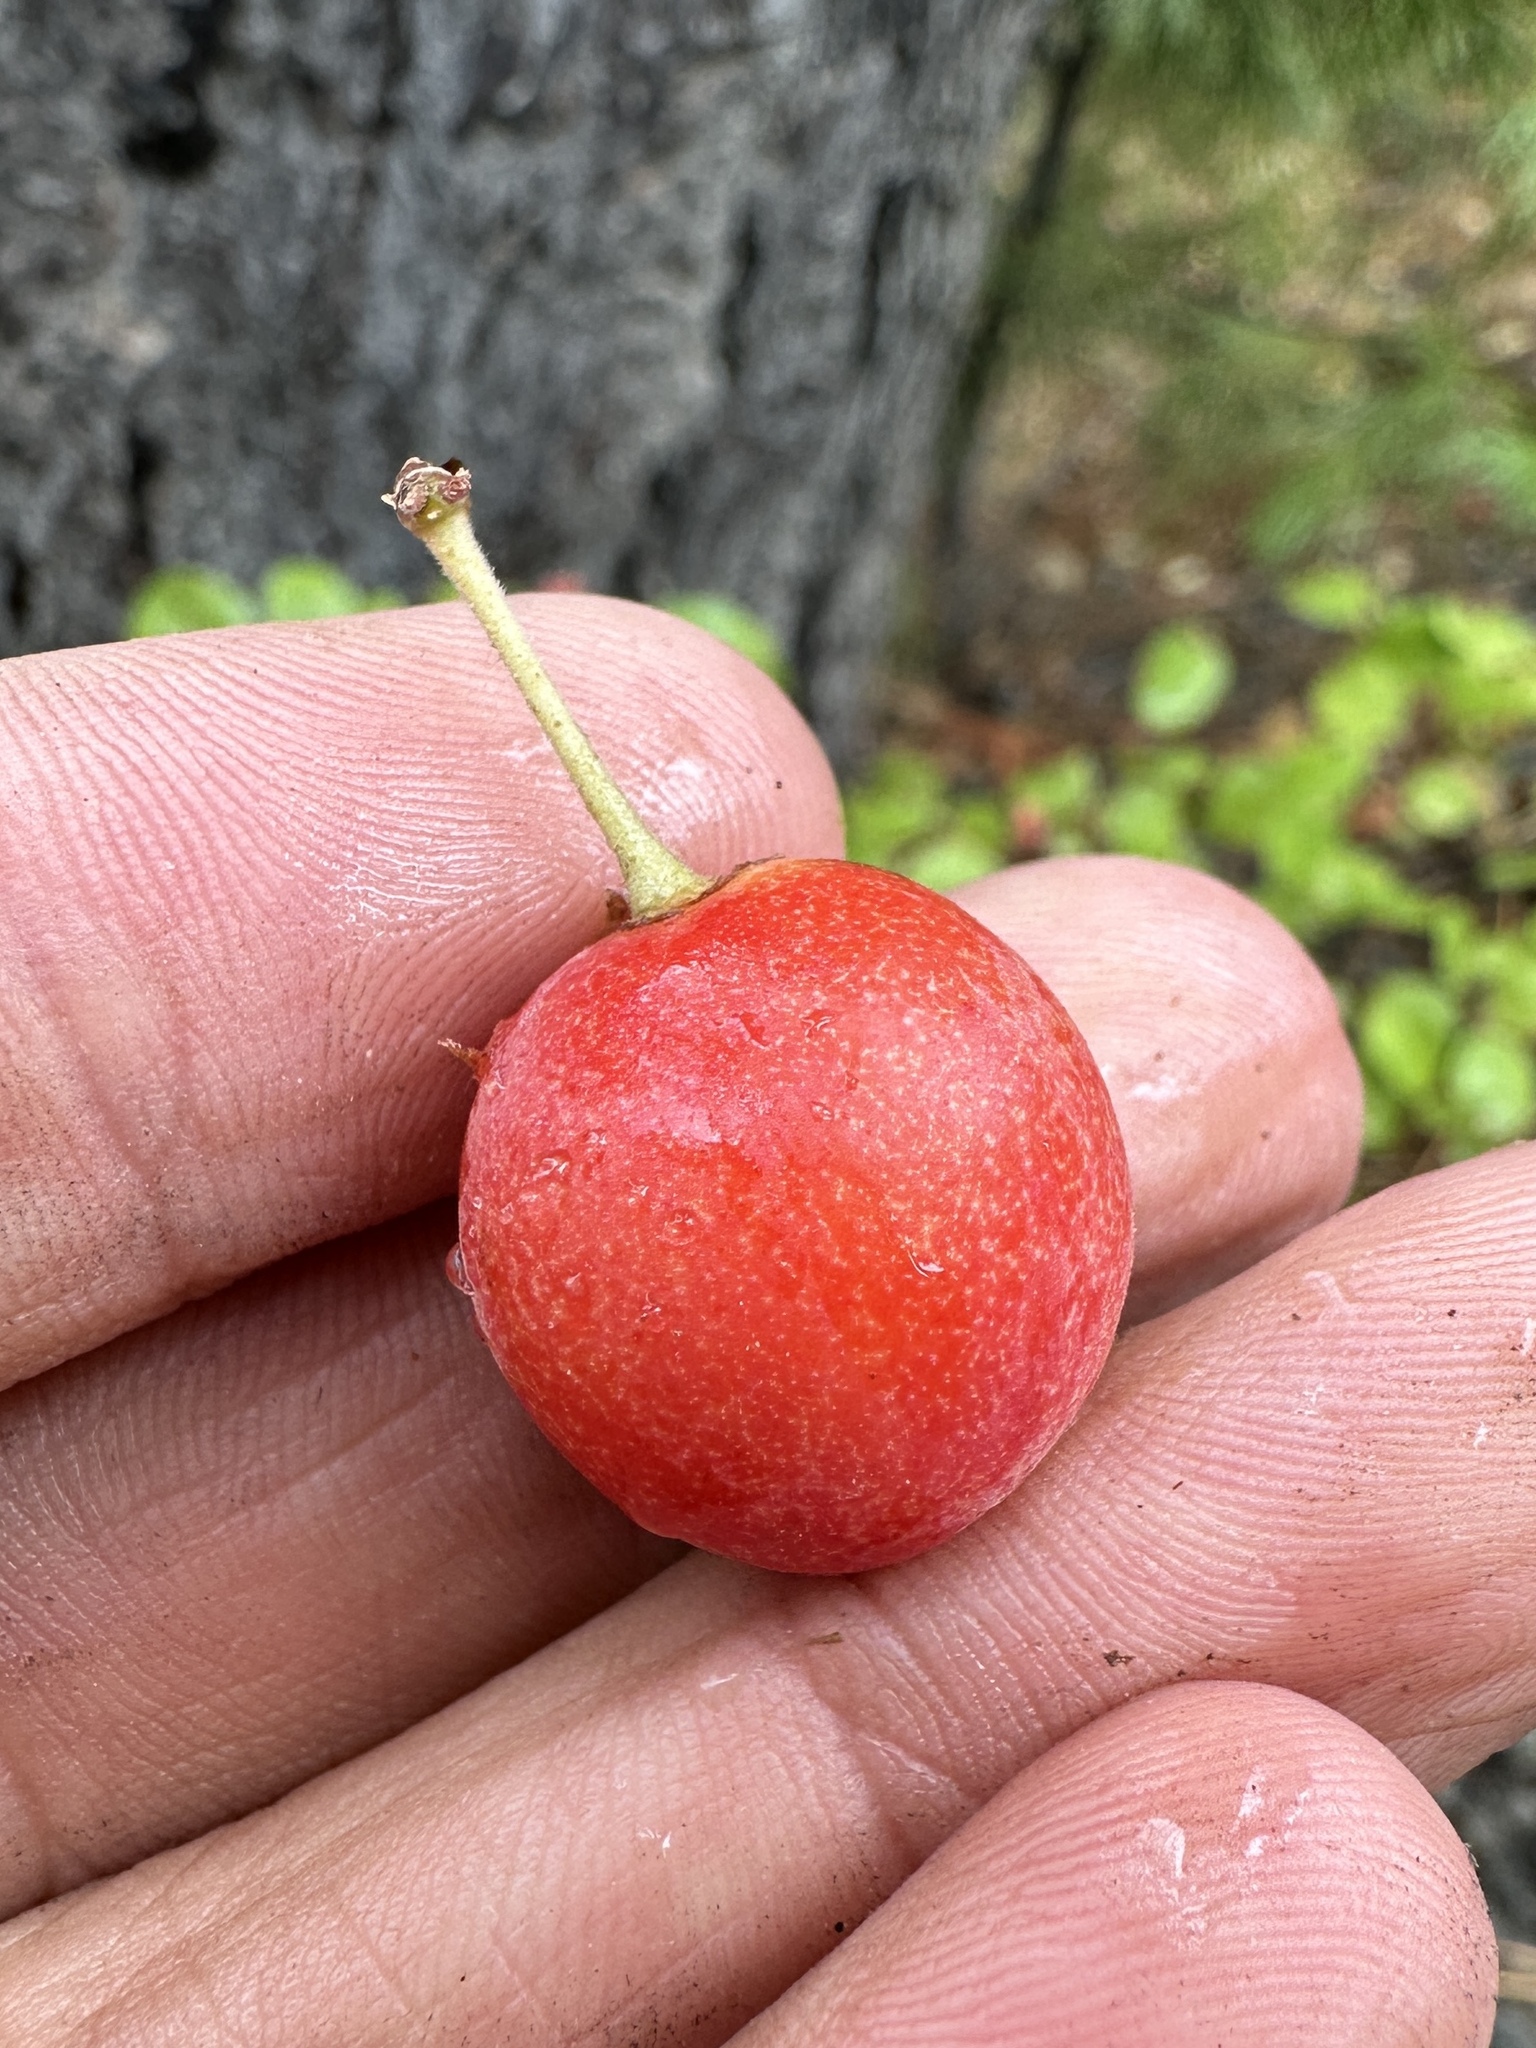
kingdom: Plantae
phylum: Tracheophyta
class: Magnoliopsida
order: Rosales
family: Rosaceae
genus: Prunus
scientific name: Prunus subcordata
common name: Klamath plum
